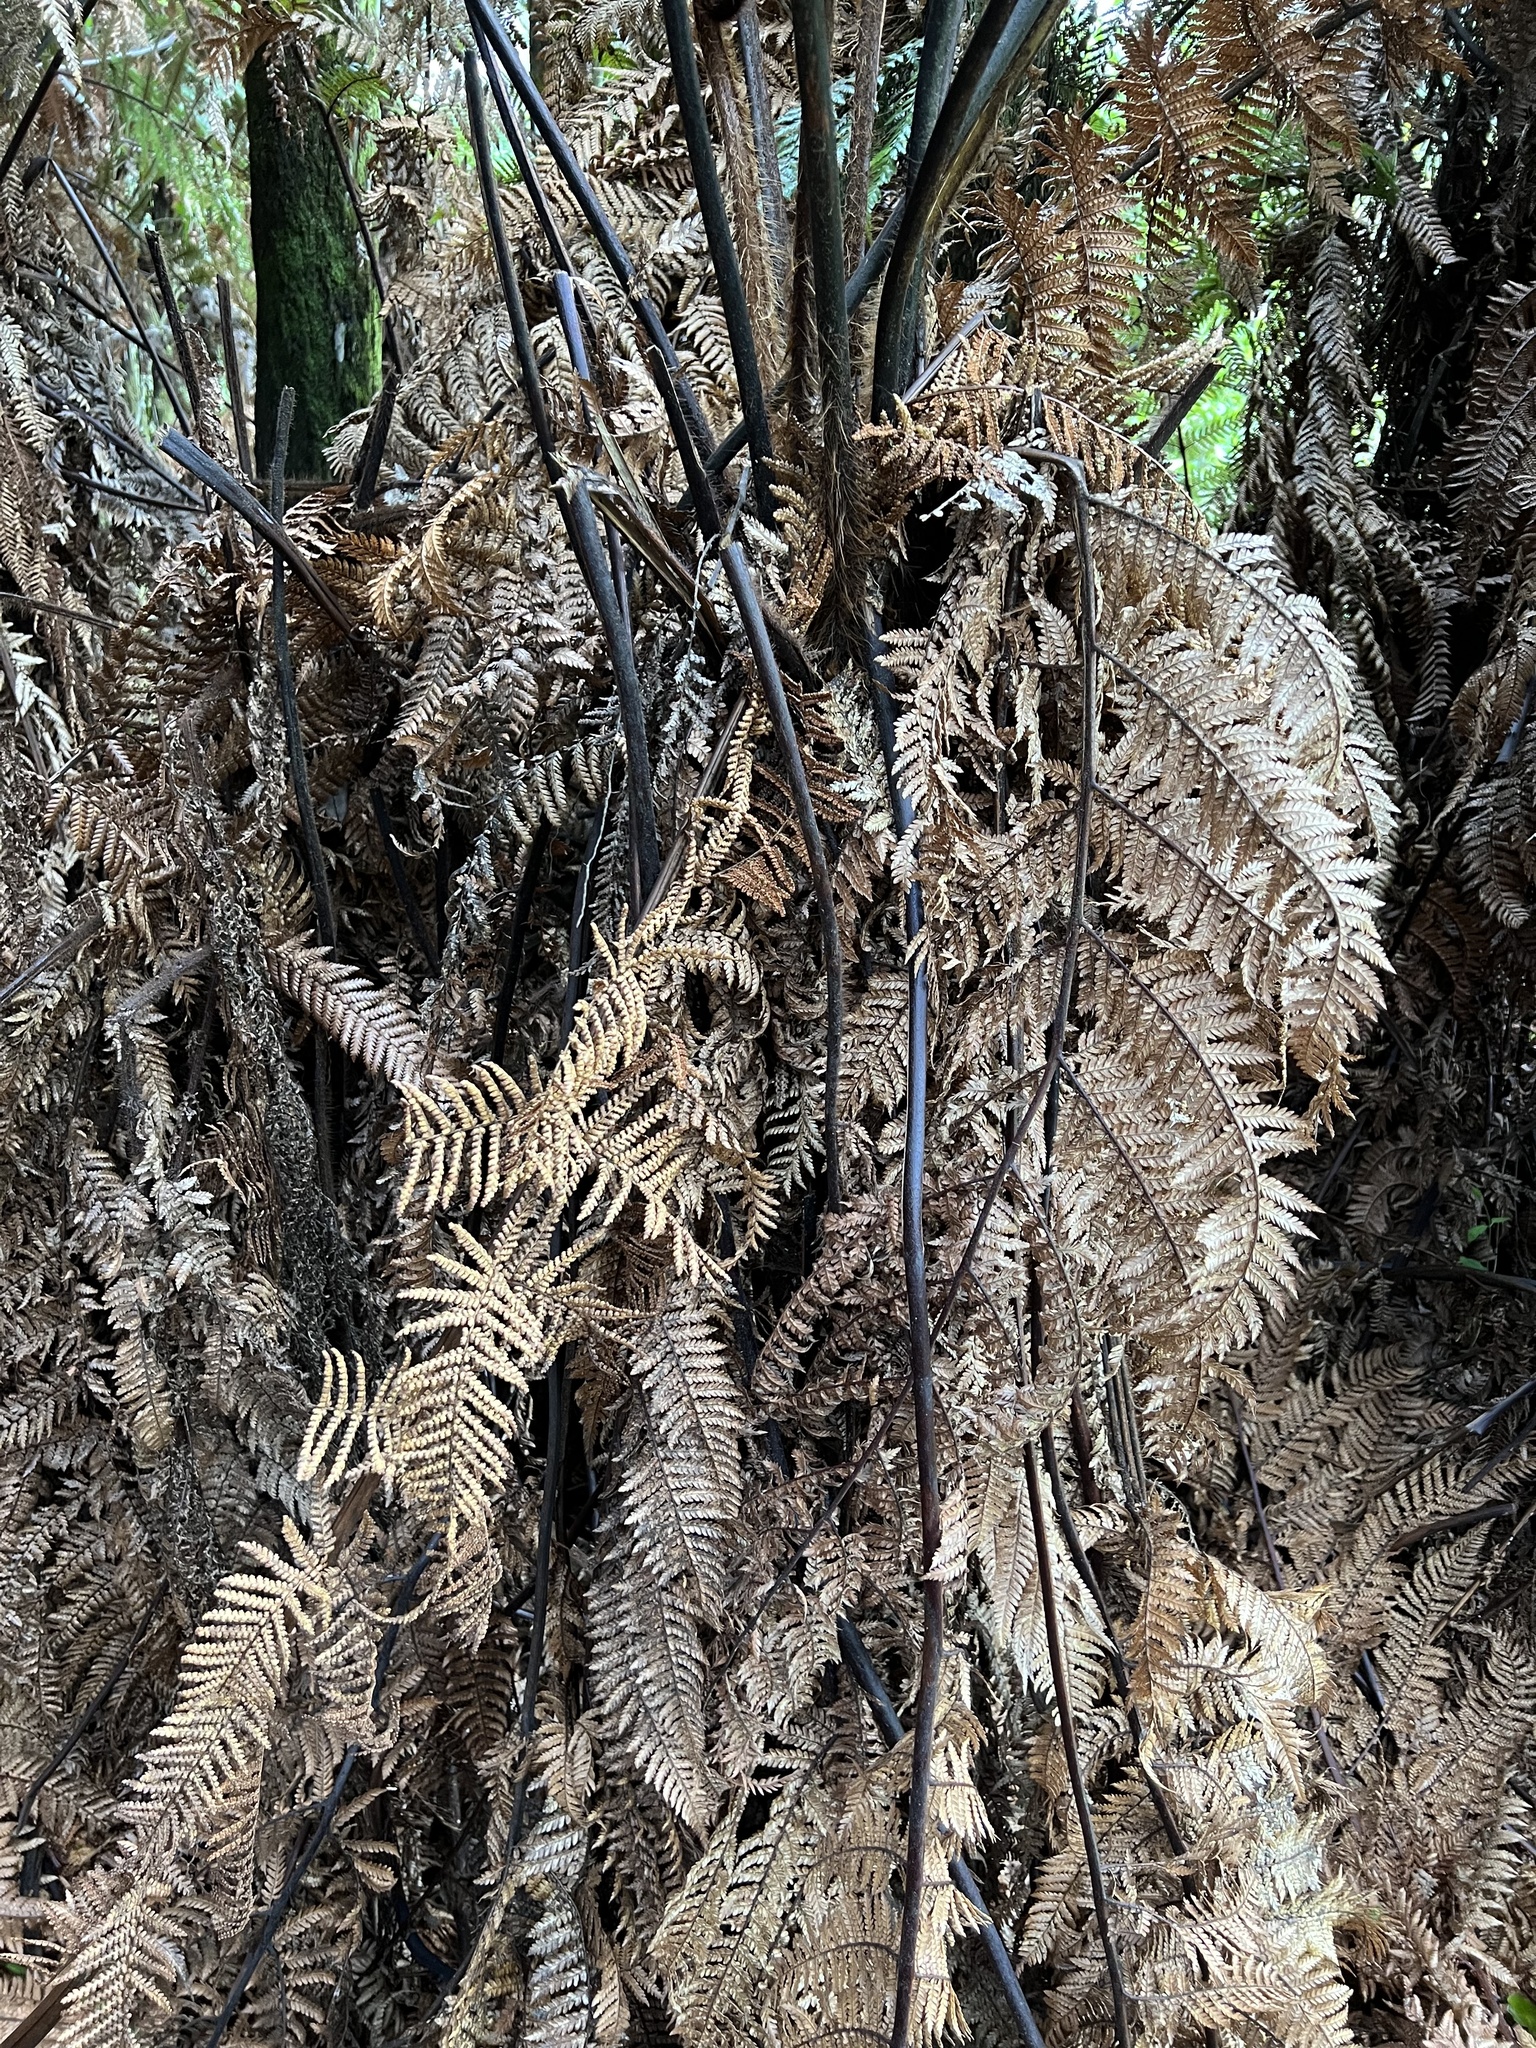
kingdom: Plantae
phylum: Tracheophyta
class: Polypodiopsida
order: Cyatheales
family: Dicksoniaceae
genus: Dicksonia
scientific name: Dicksonia squarrosa
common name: Hard treefern
